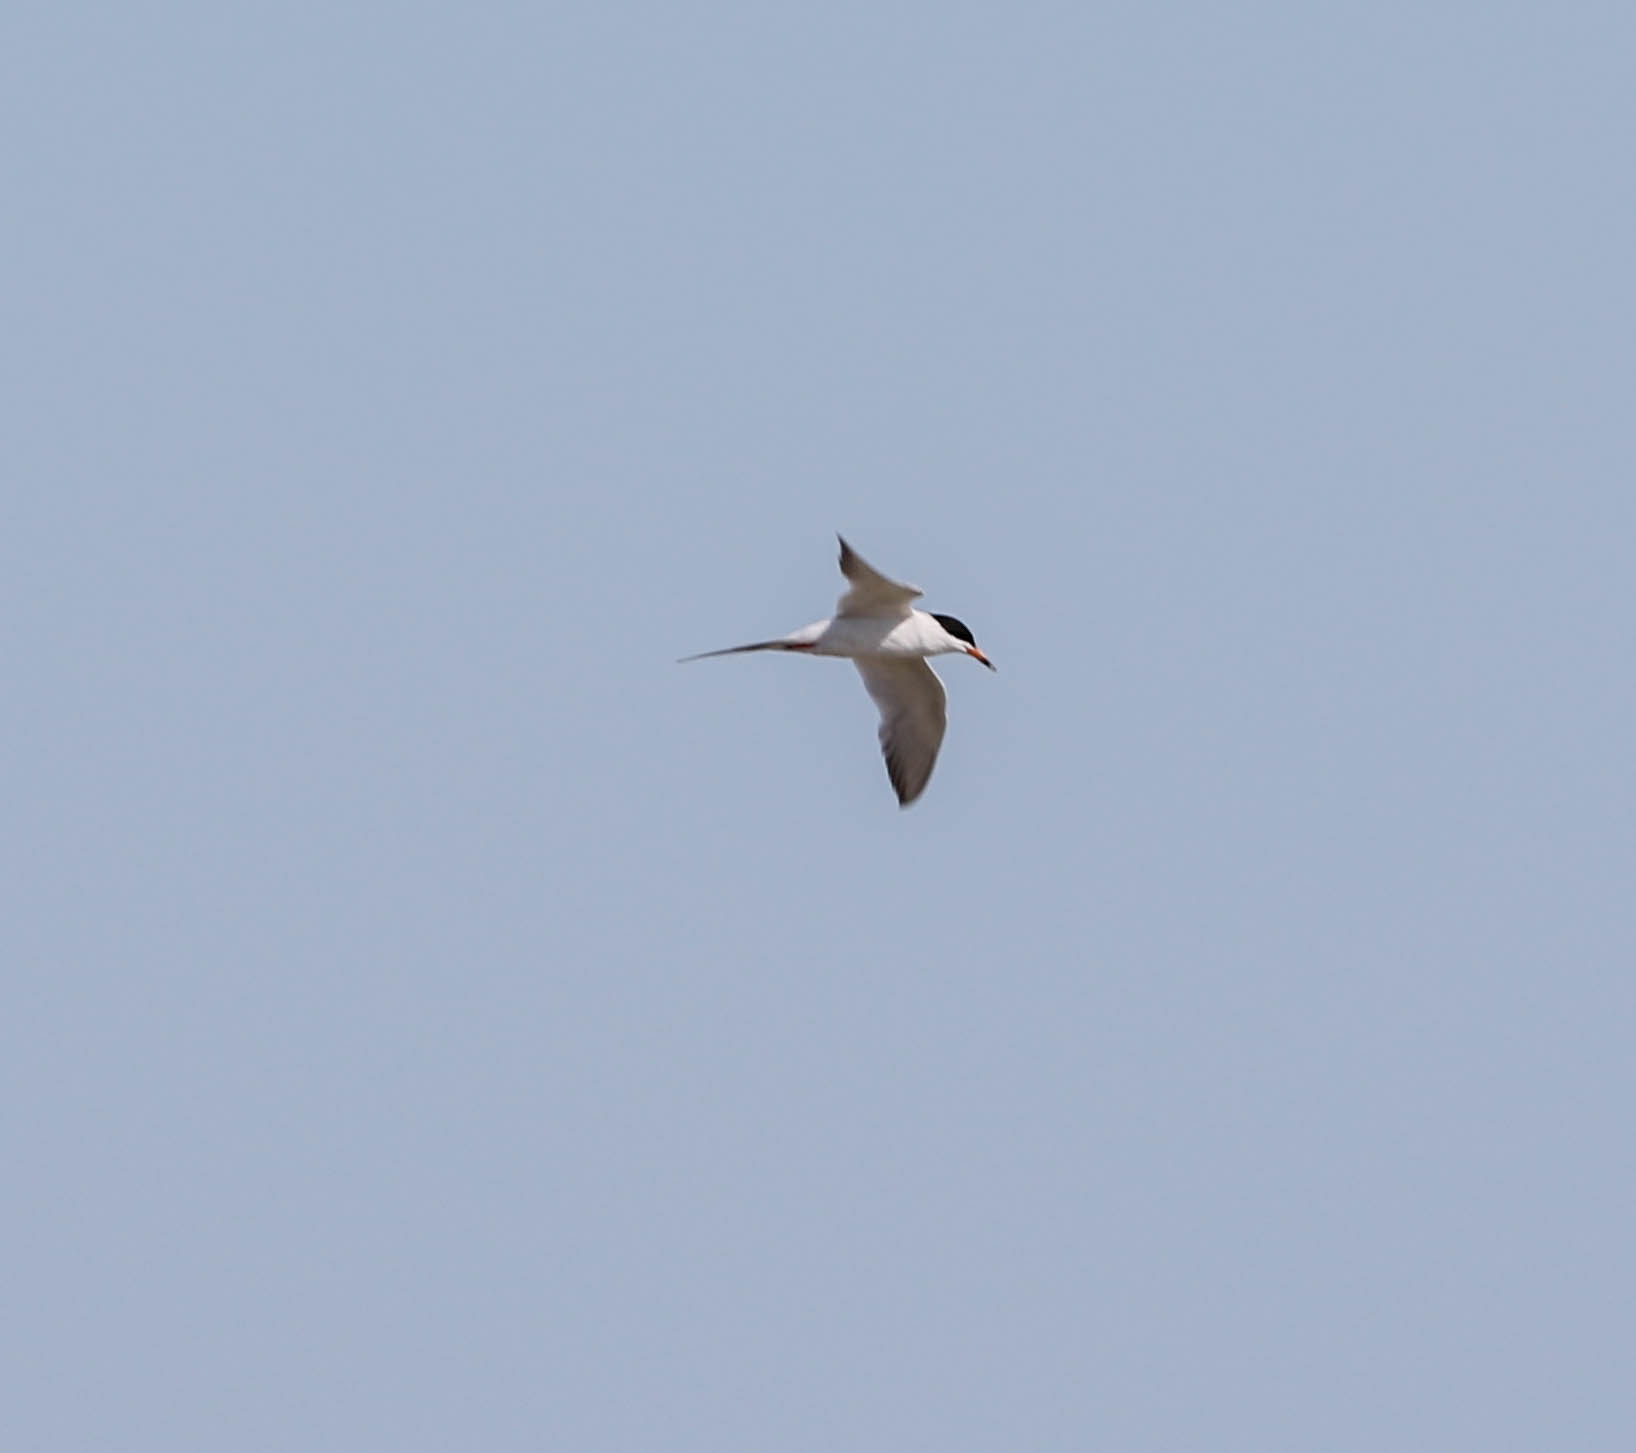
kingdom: Animalia
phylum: Chordata
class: Aves
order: Charadriiformes
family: Laridae
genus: Sterna
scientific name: Sterna forsteri
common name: Forster's tern
